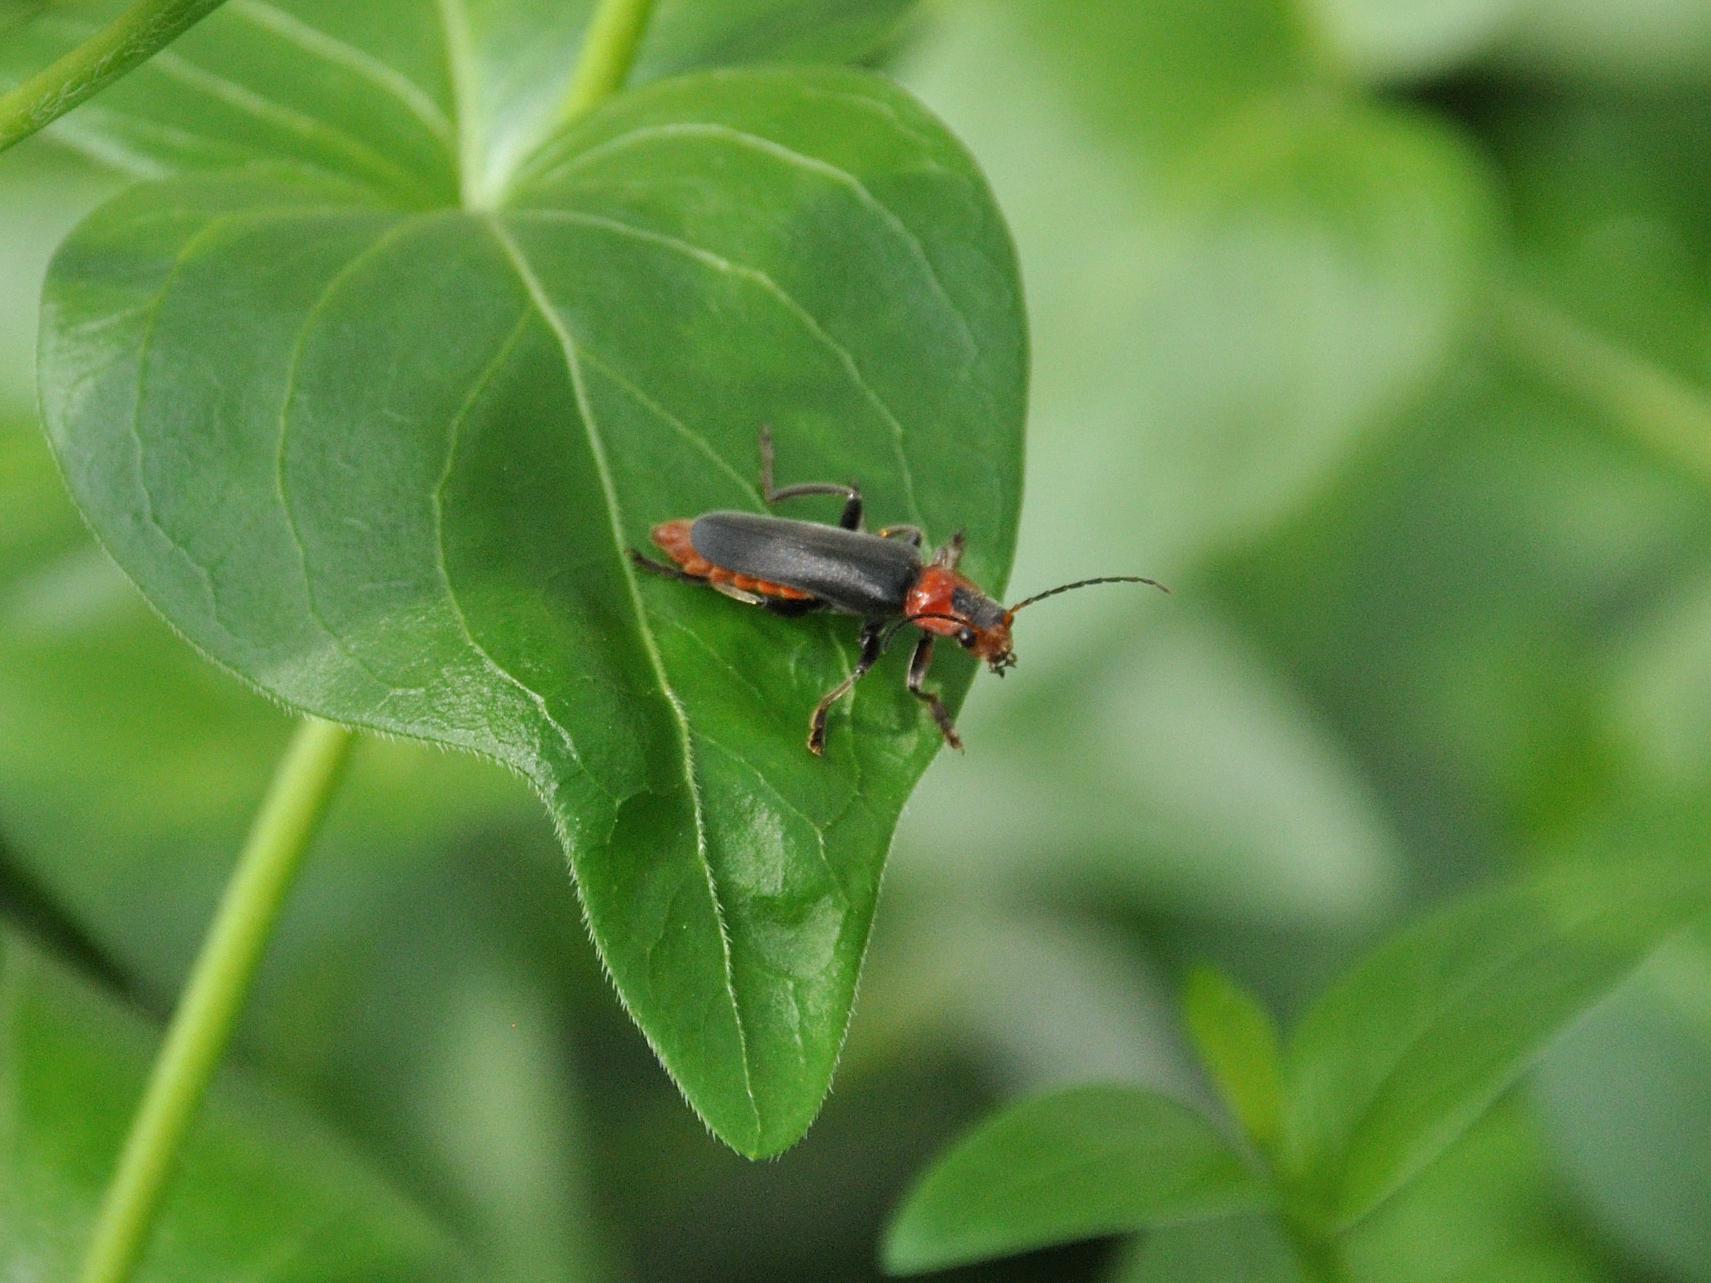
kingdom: Animalia
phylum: Arthropoda
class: Insecta
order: Coleoptera
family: Cantharidae
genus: Cantharis
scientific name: Cantharis fusca
